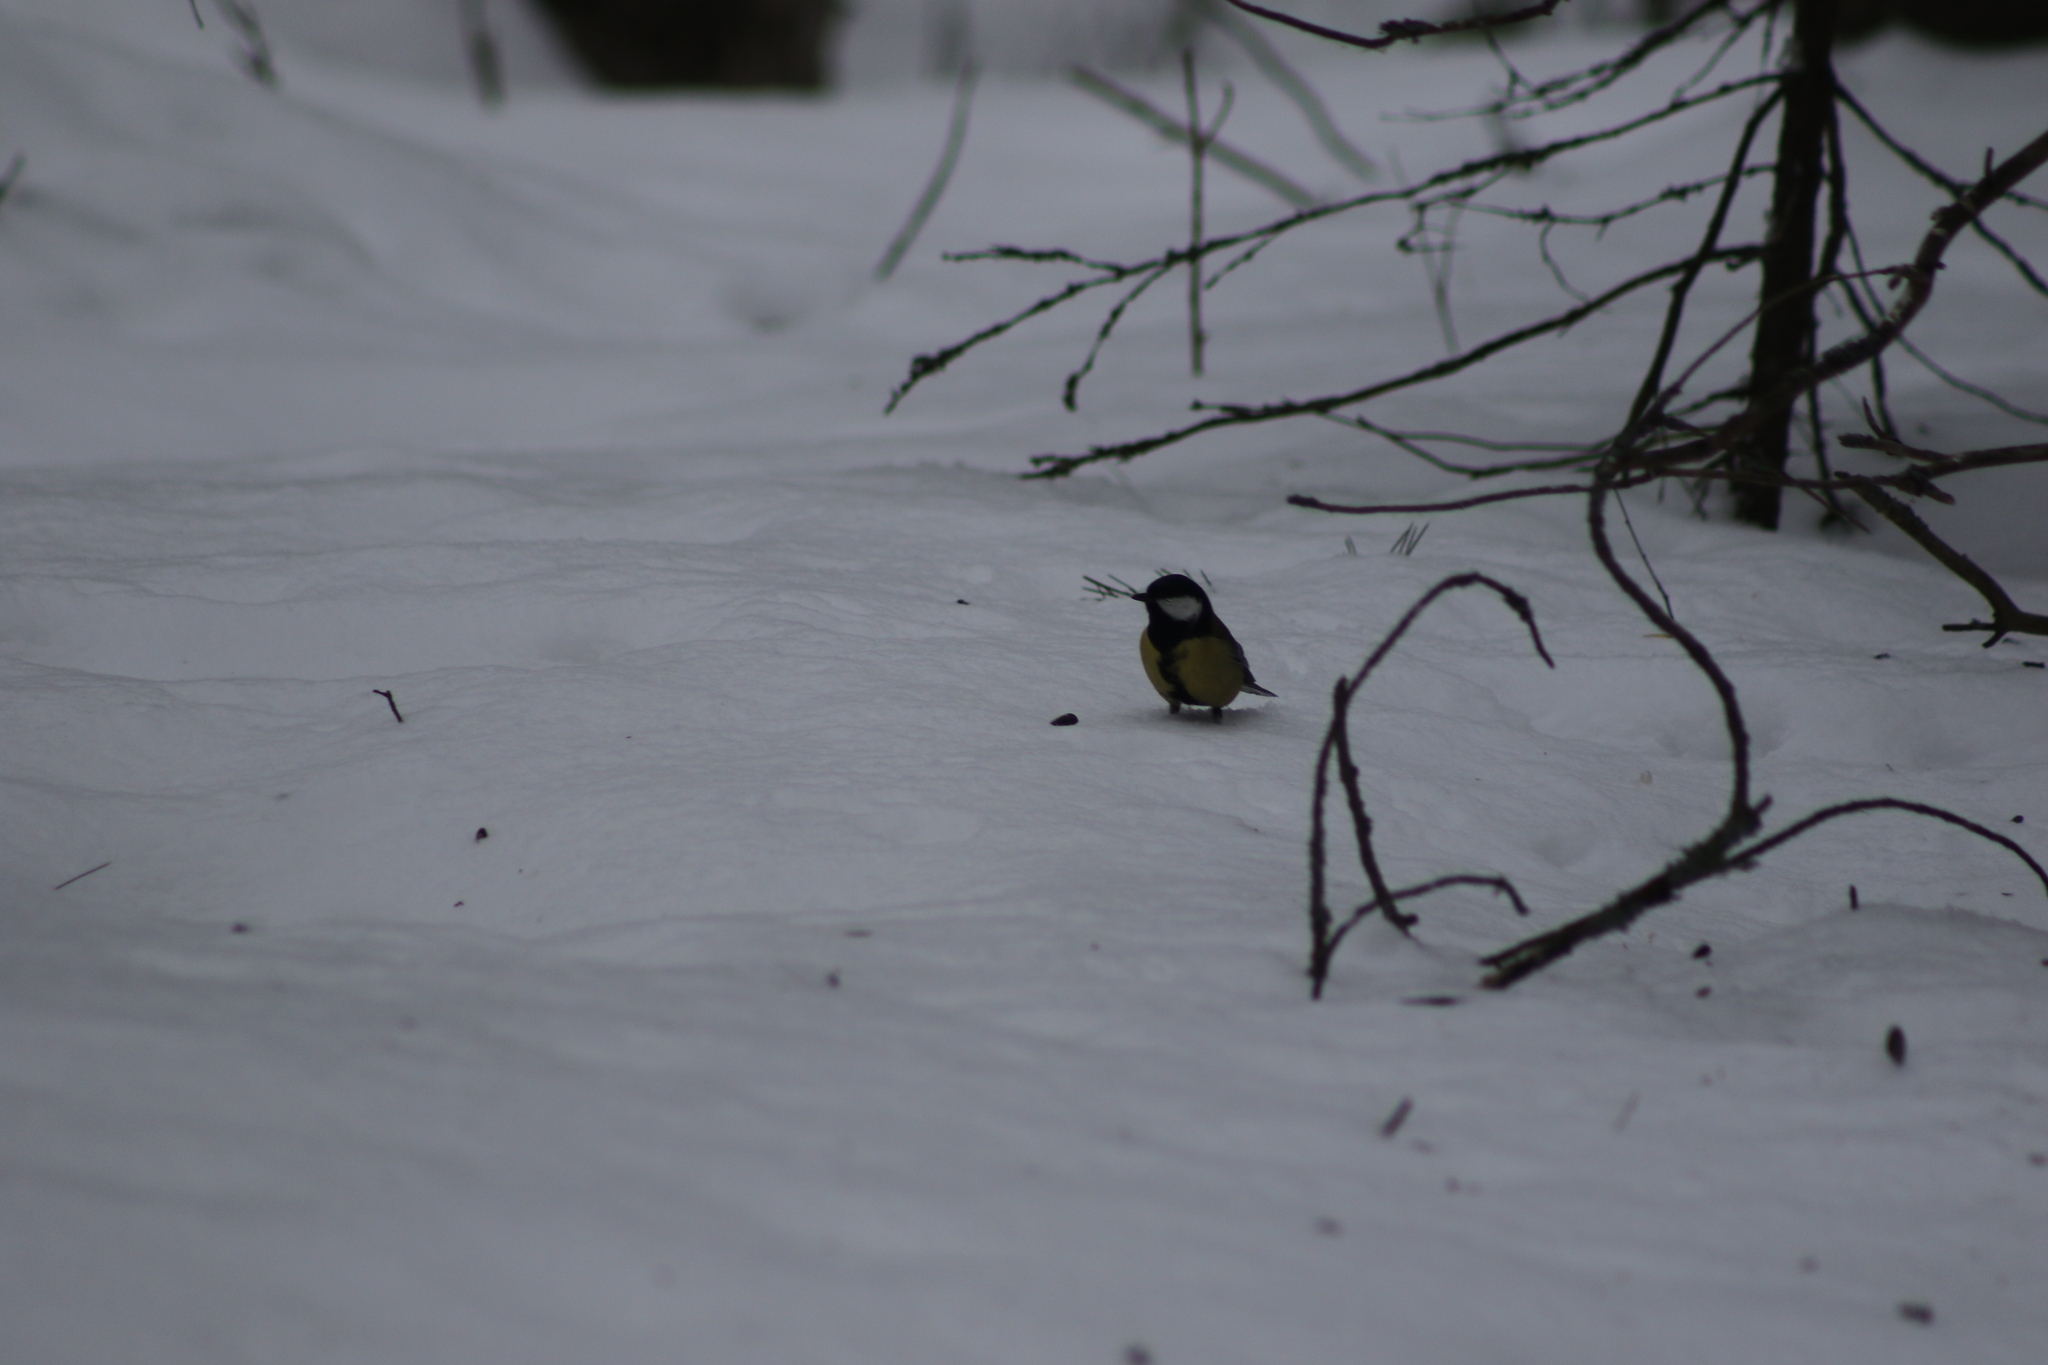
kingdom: Animalia
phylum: Chordata
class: Aves
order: Passeriformes
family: Paridae
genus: Parus
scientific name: Parus major
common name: Great tit
